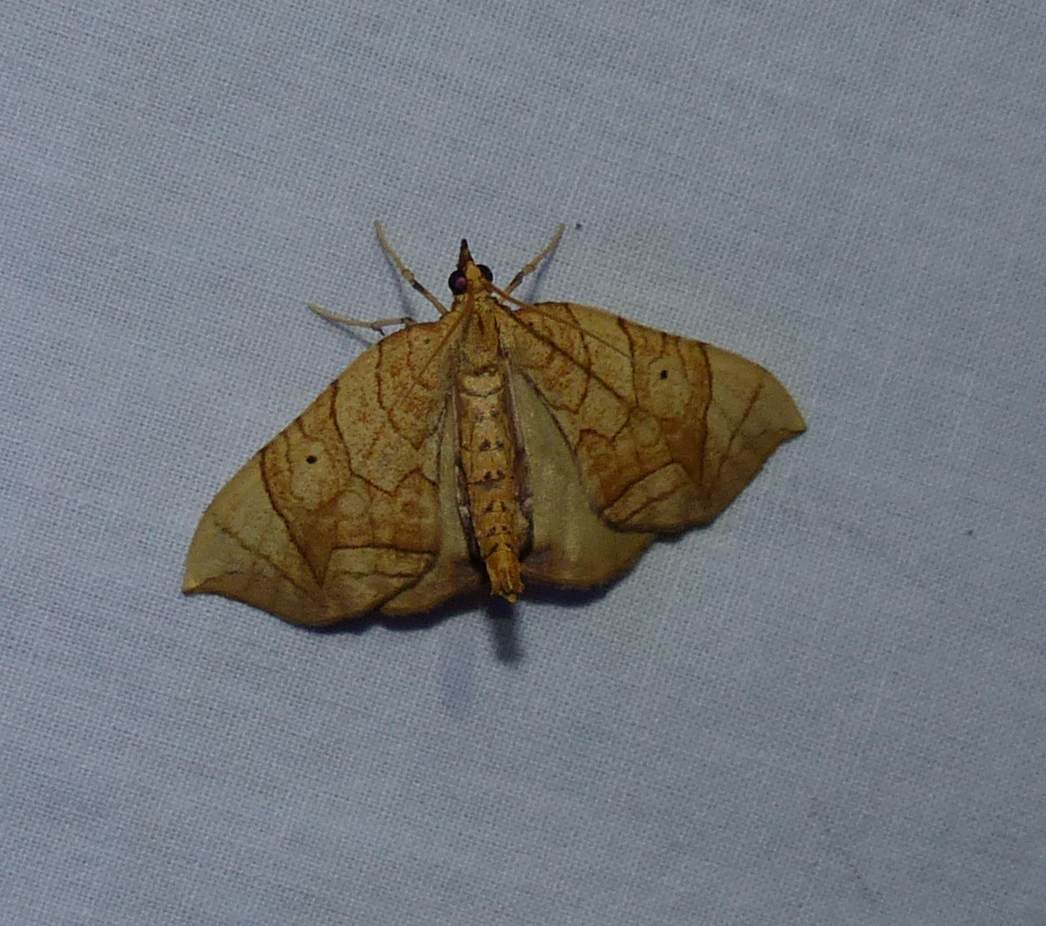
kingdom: Animalia
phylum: Arthropoda
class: Insecta
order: Lepidoptera
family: Geometridae
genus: Eulithis
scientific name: Eulithis
